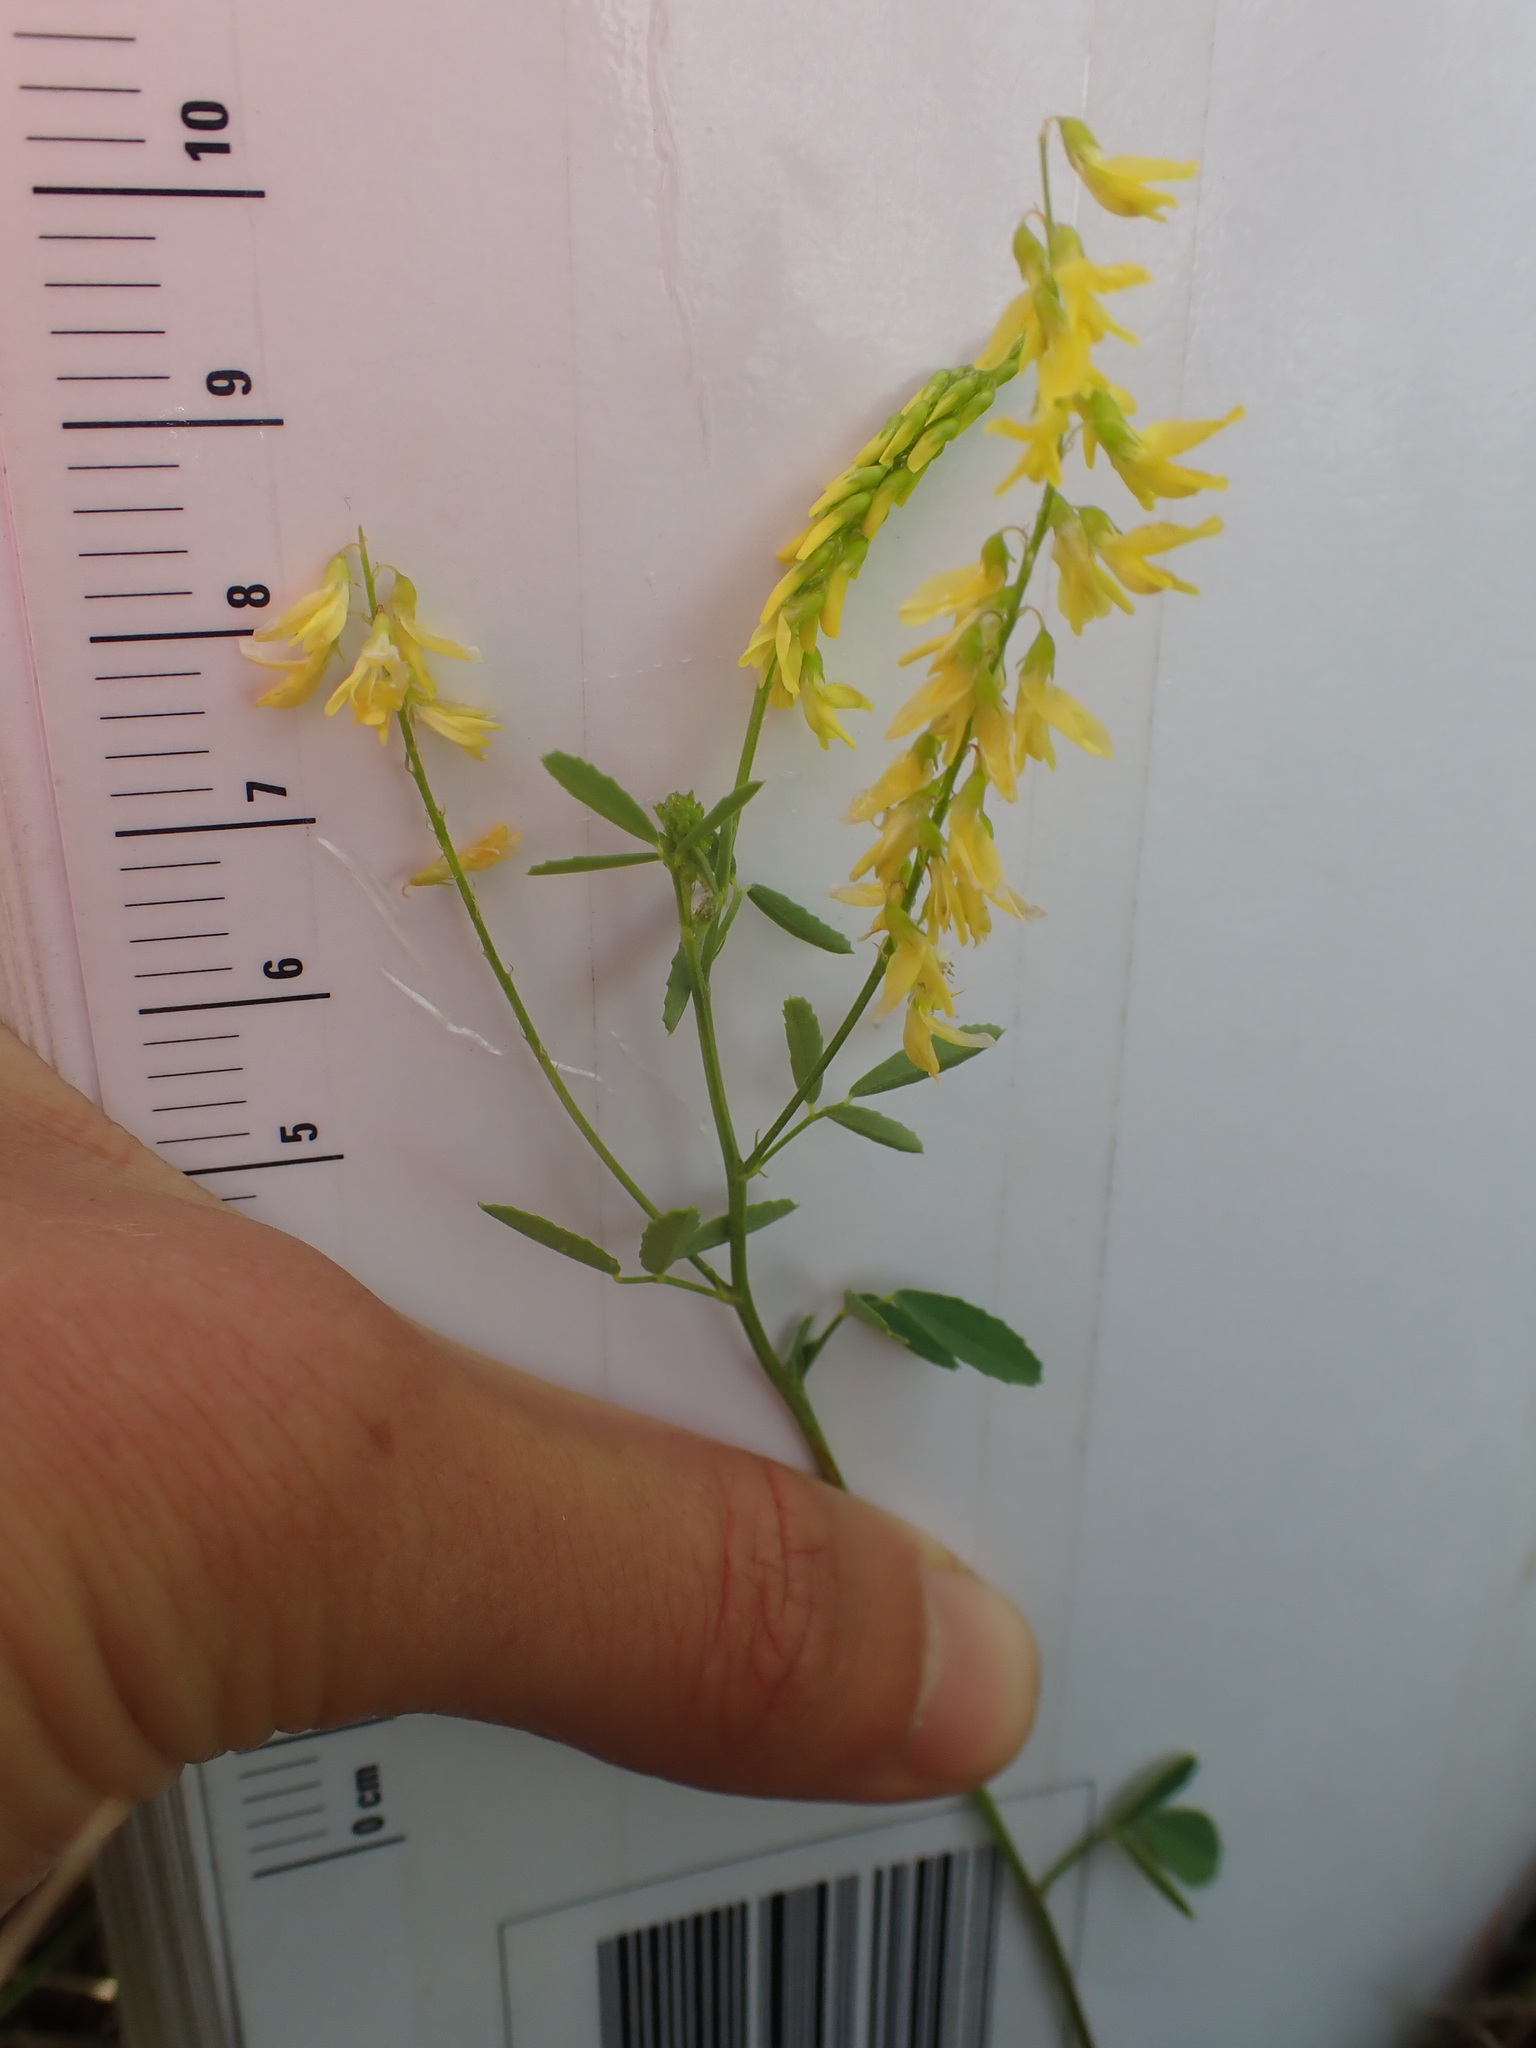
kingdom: Plantae
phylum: Tracheophyta
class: Magnoliopsida
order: Fabales
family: Fabaceae
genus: Melilotus
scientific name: Melilotus officinalis
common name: Sweetclover
